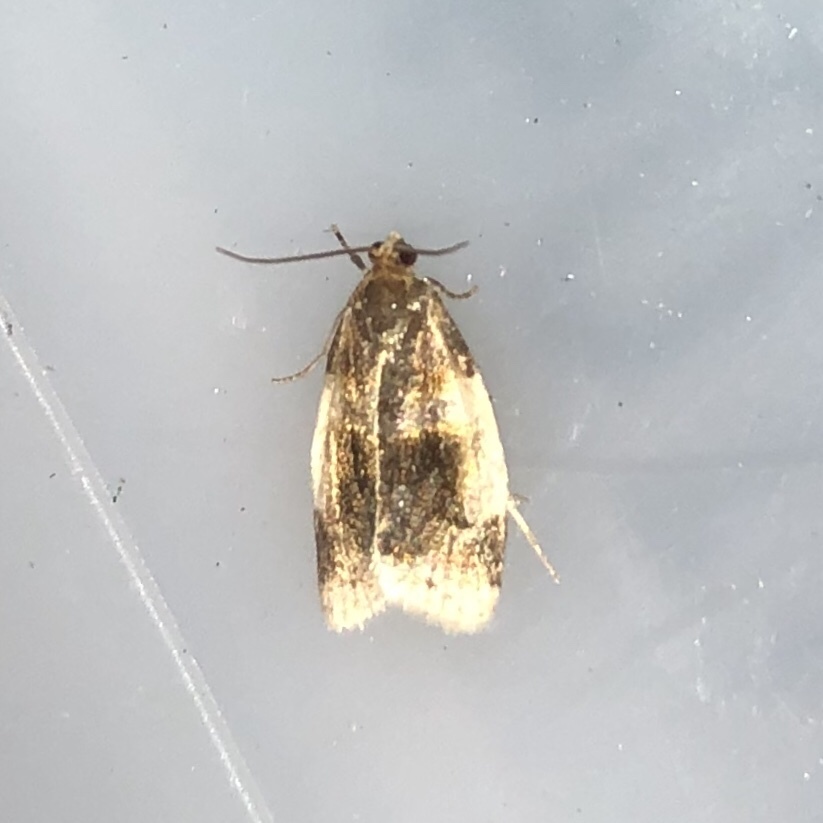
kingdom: Animalia
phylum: Arthropoda
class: Insecta
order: Lepidoptera
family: Tortricidae
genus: Clepsis
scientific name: Clepsis melaleucanus
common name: American apple tortrix
